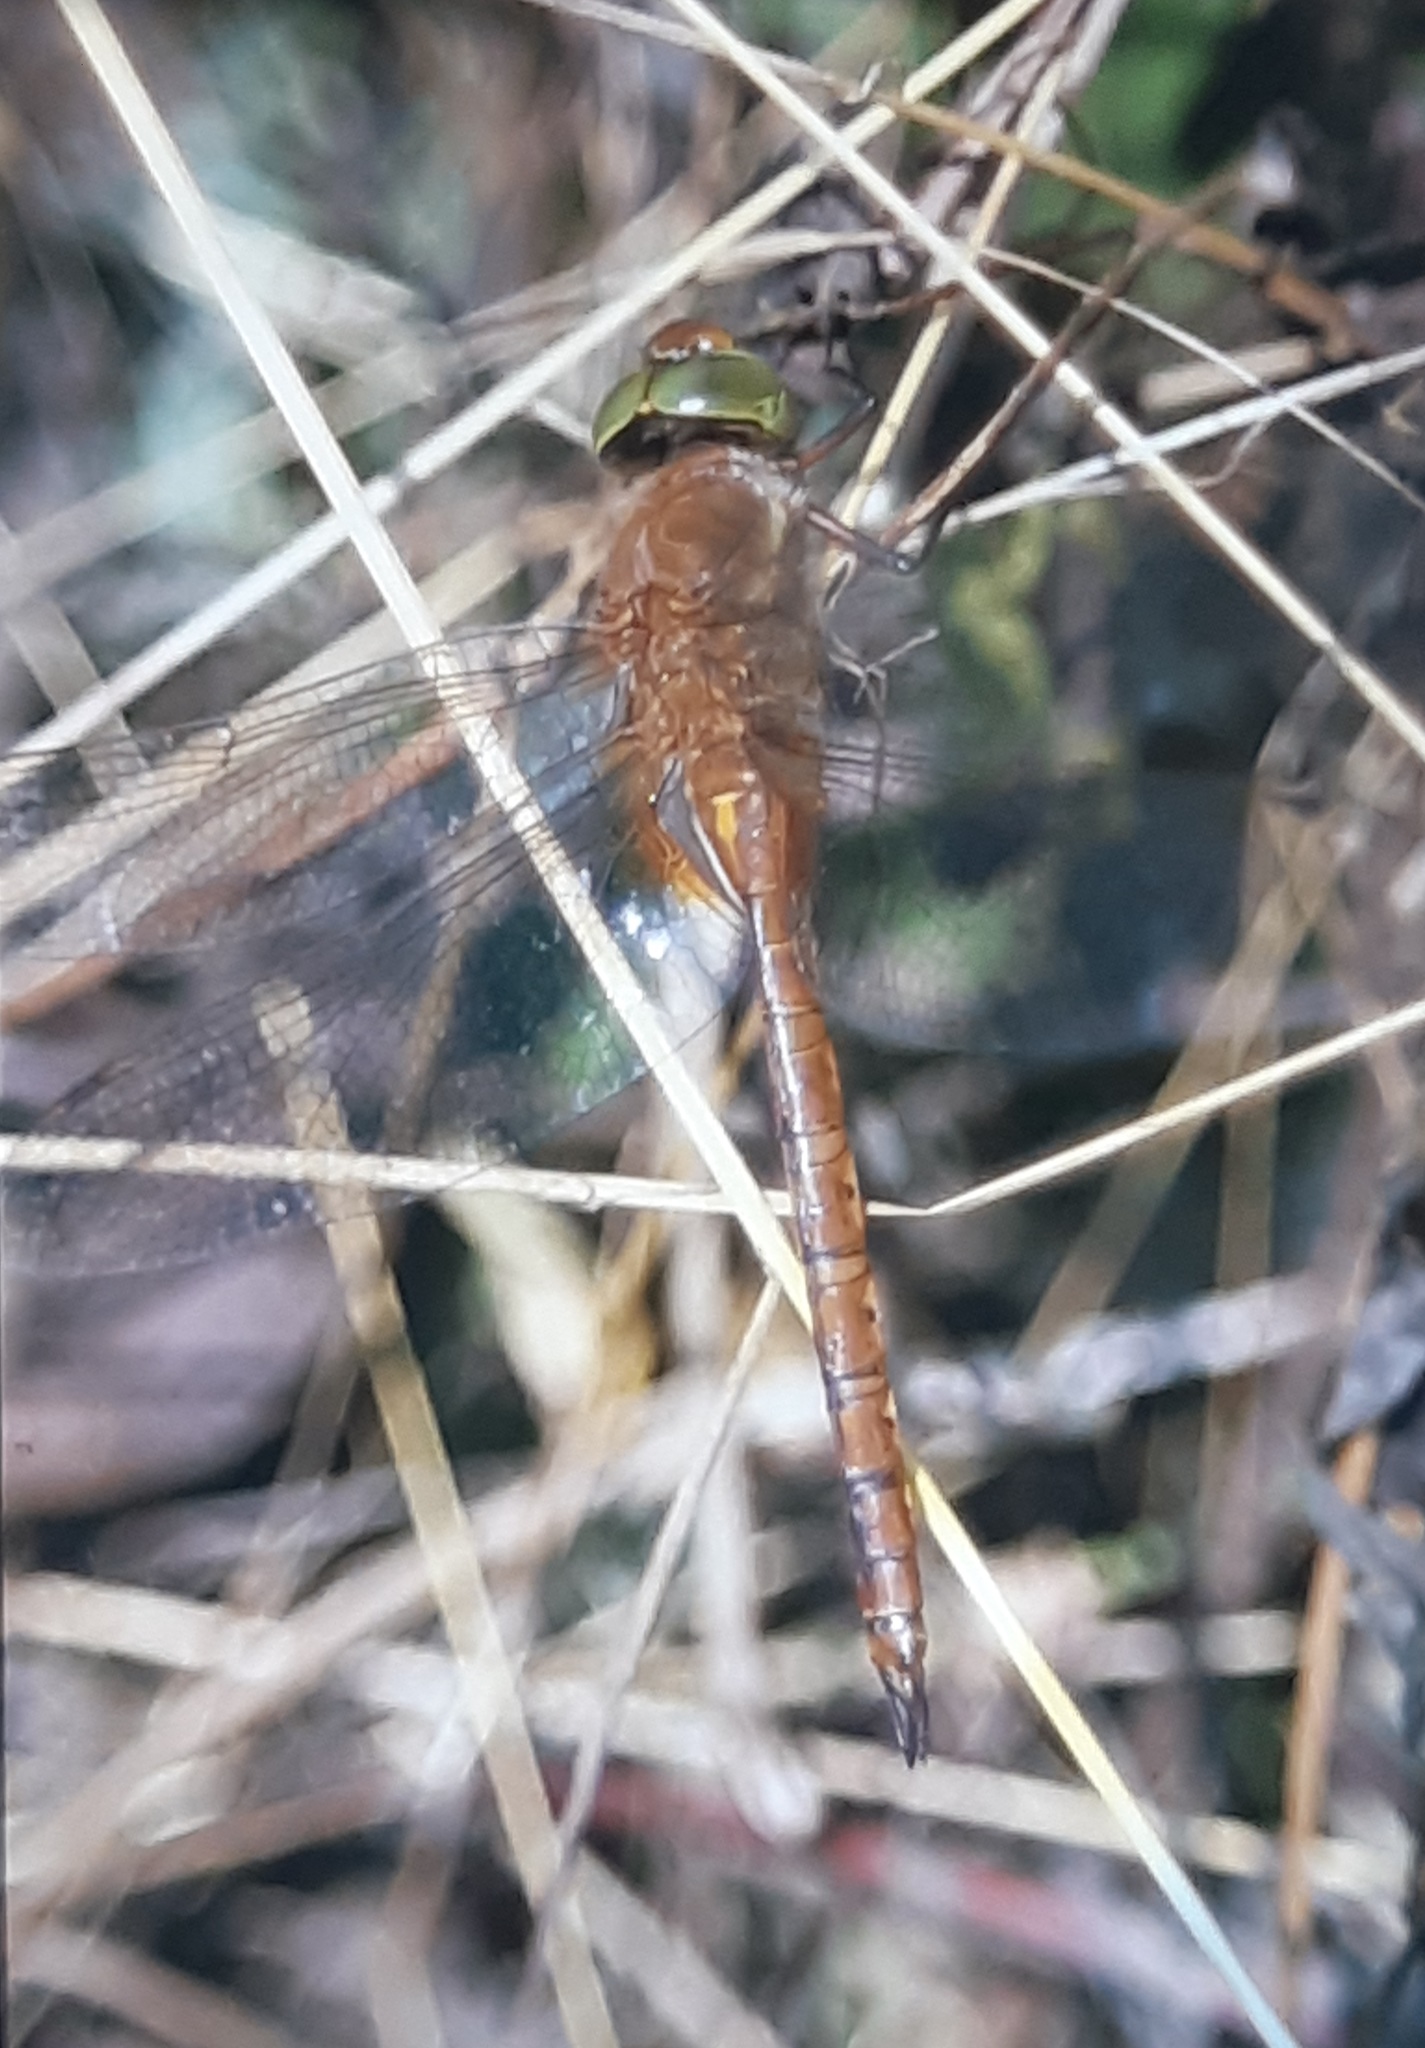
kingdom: Animalia
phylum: Arthropoda
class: Insecta
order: Odonata
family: Aeshnidae
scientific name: Aeshnidae
